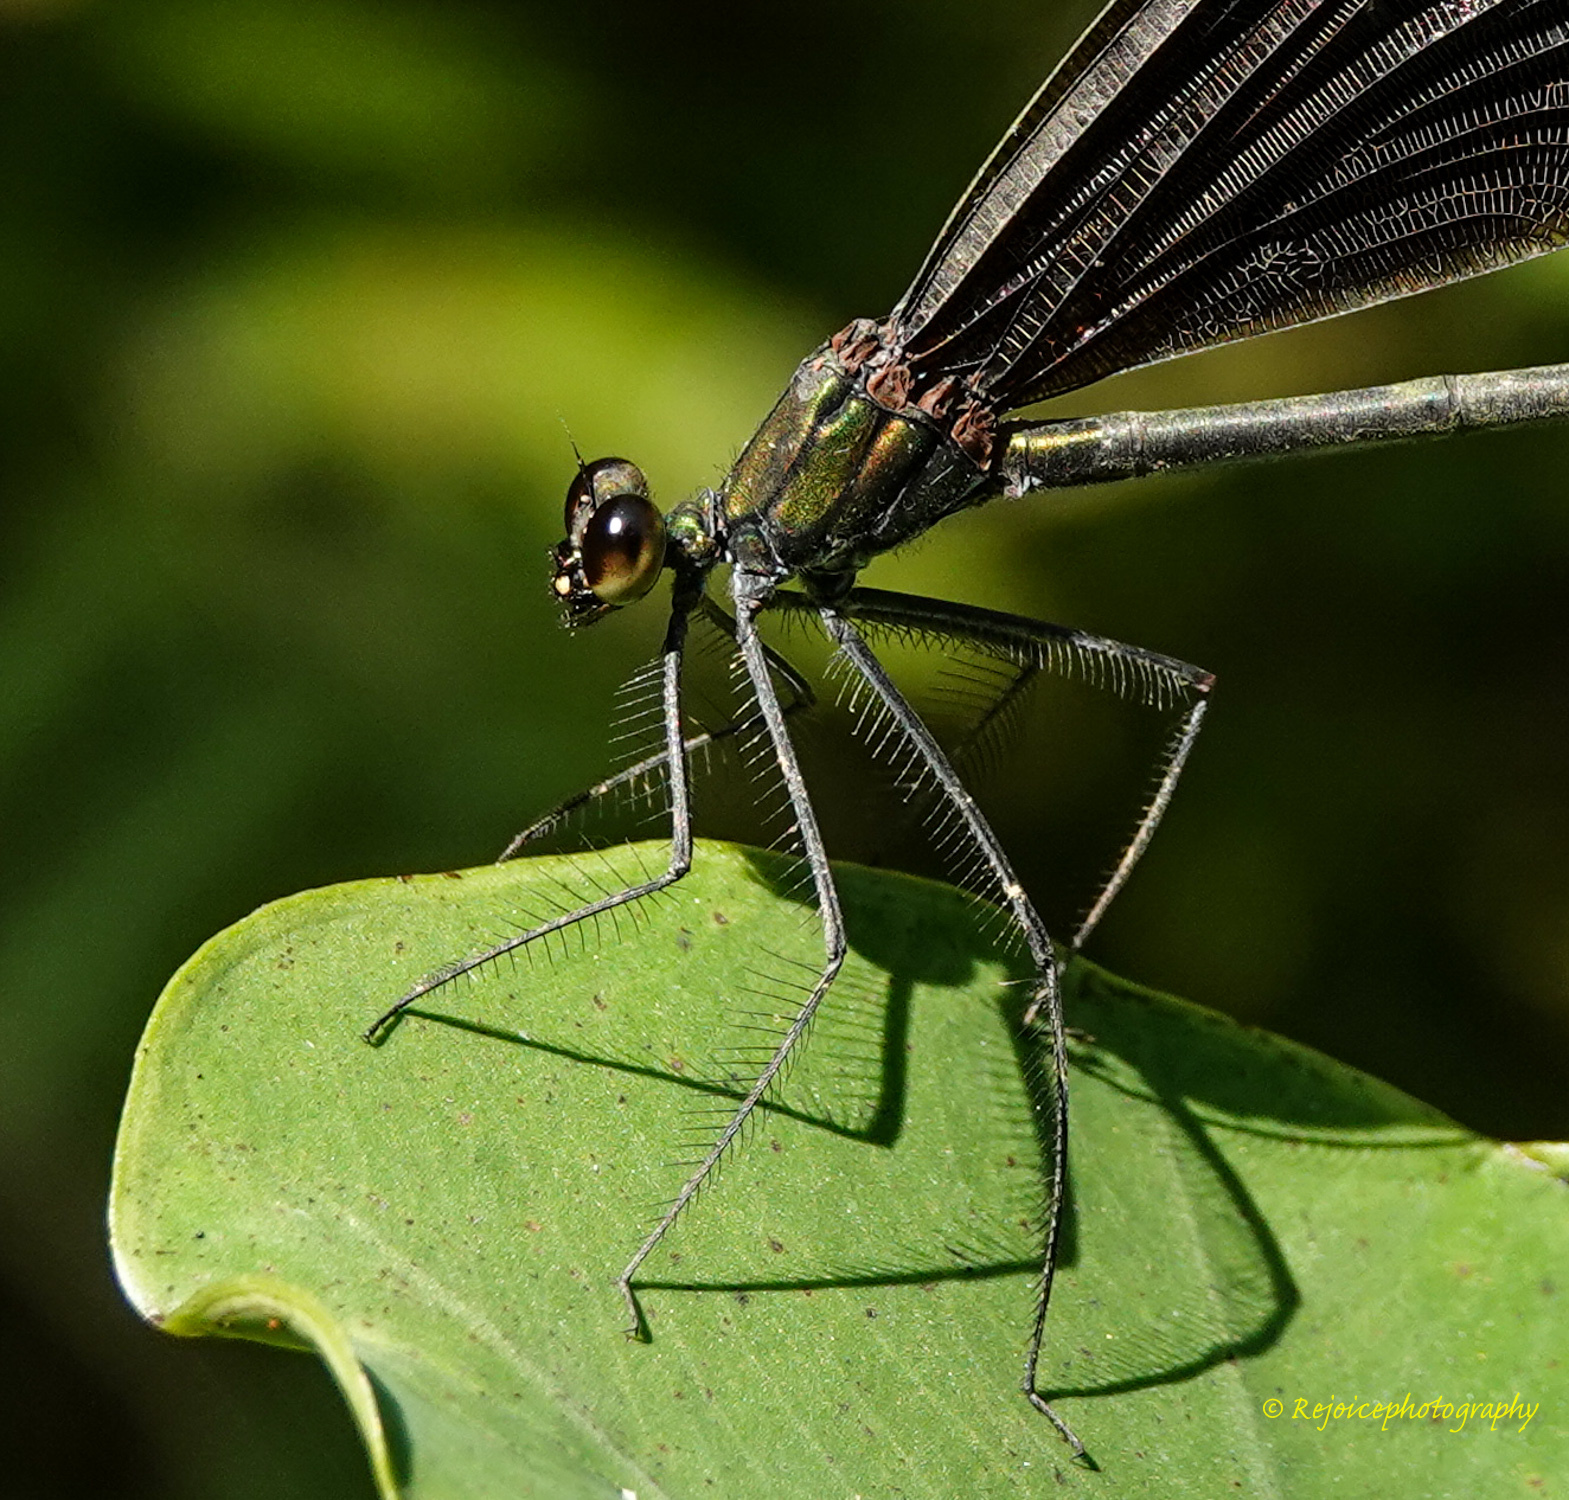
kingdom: Animalia
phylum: Arthropoda
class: Insecta
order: Odonata
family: Calopterygidae
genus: Matrona
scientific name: Matrona nigripectus
